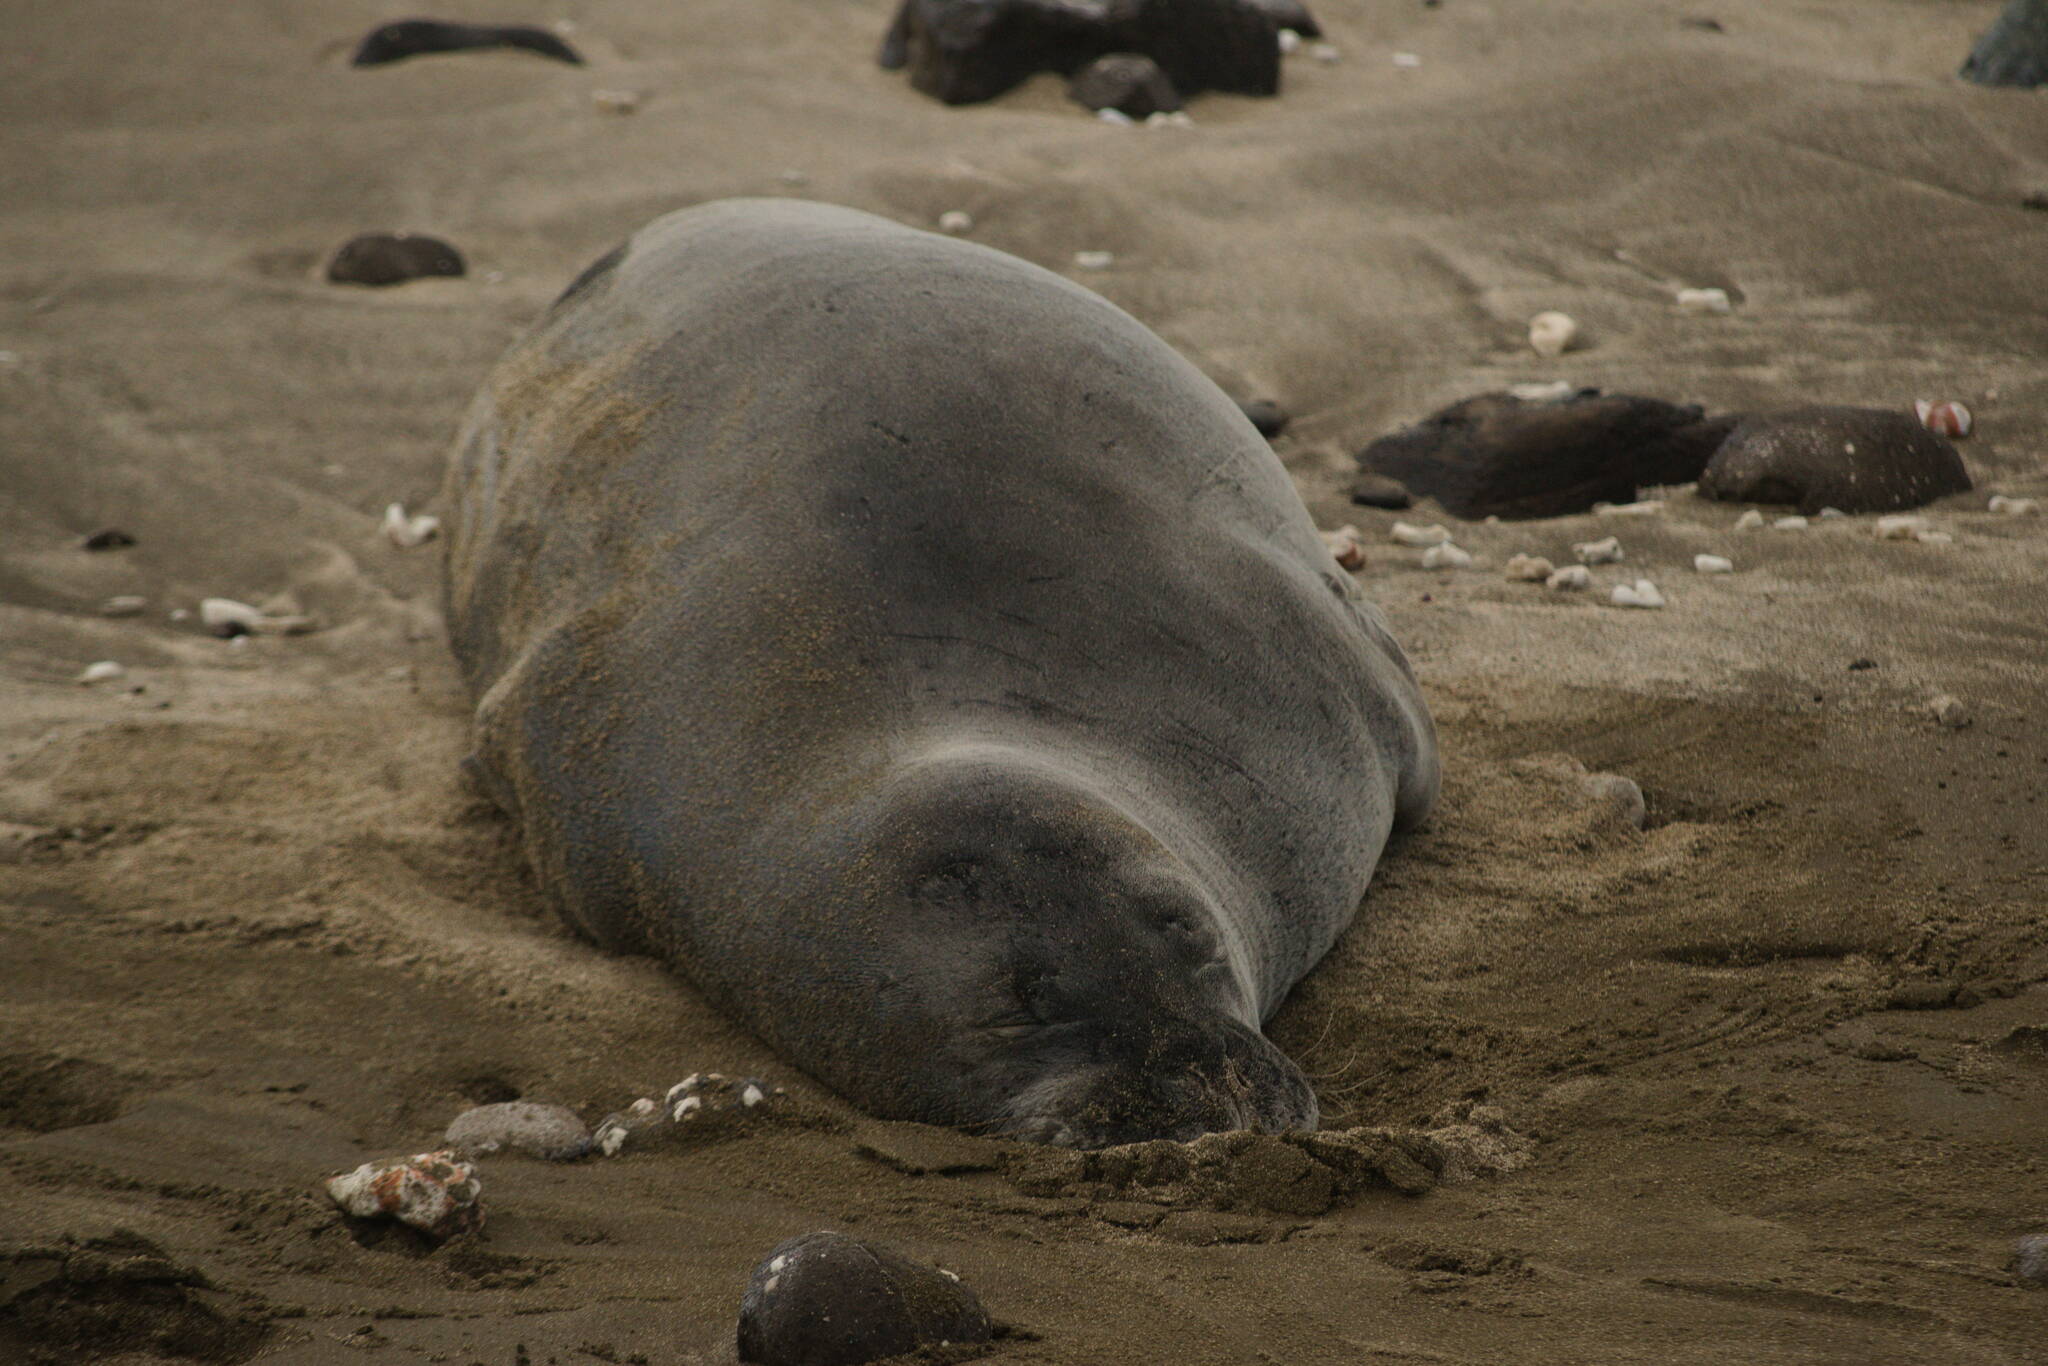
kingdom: Animalia
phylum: Chordata
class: Mammalia
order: Carnivora
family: Phocidae
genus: Neomonachus
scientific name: Neomonachus schauinslandi
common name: Hawaiian monk seal
